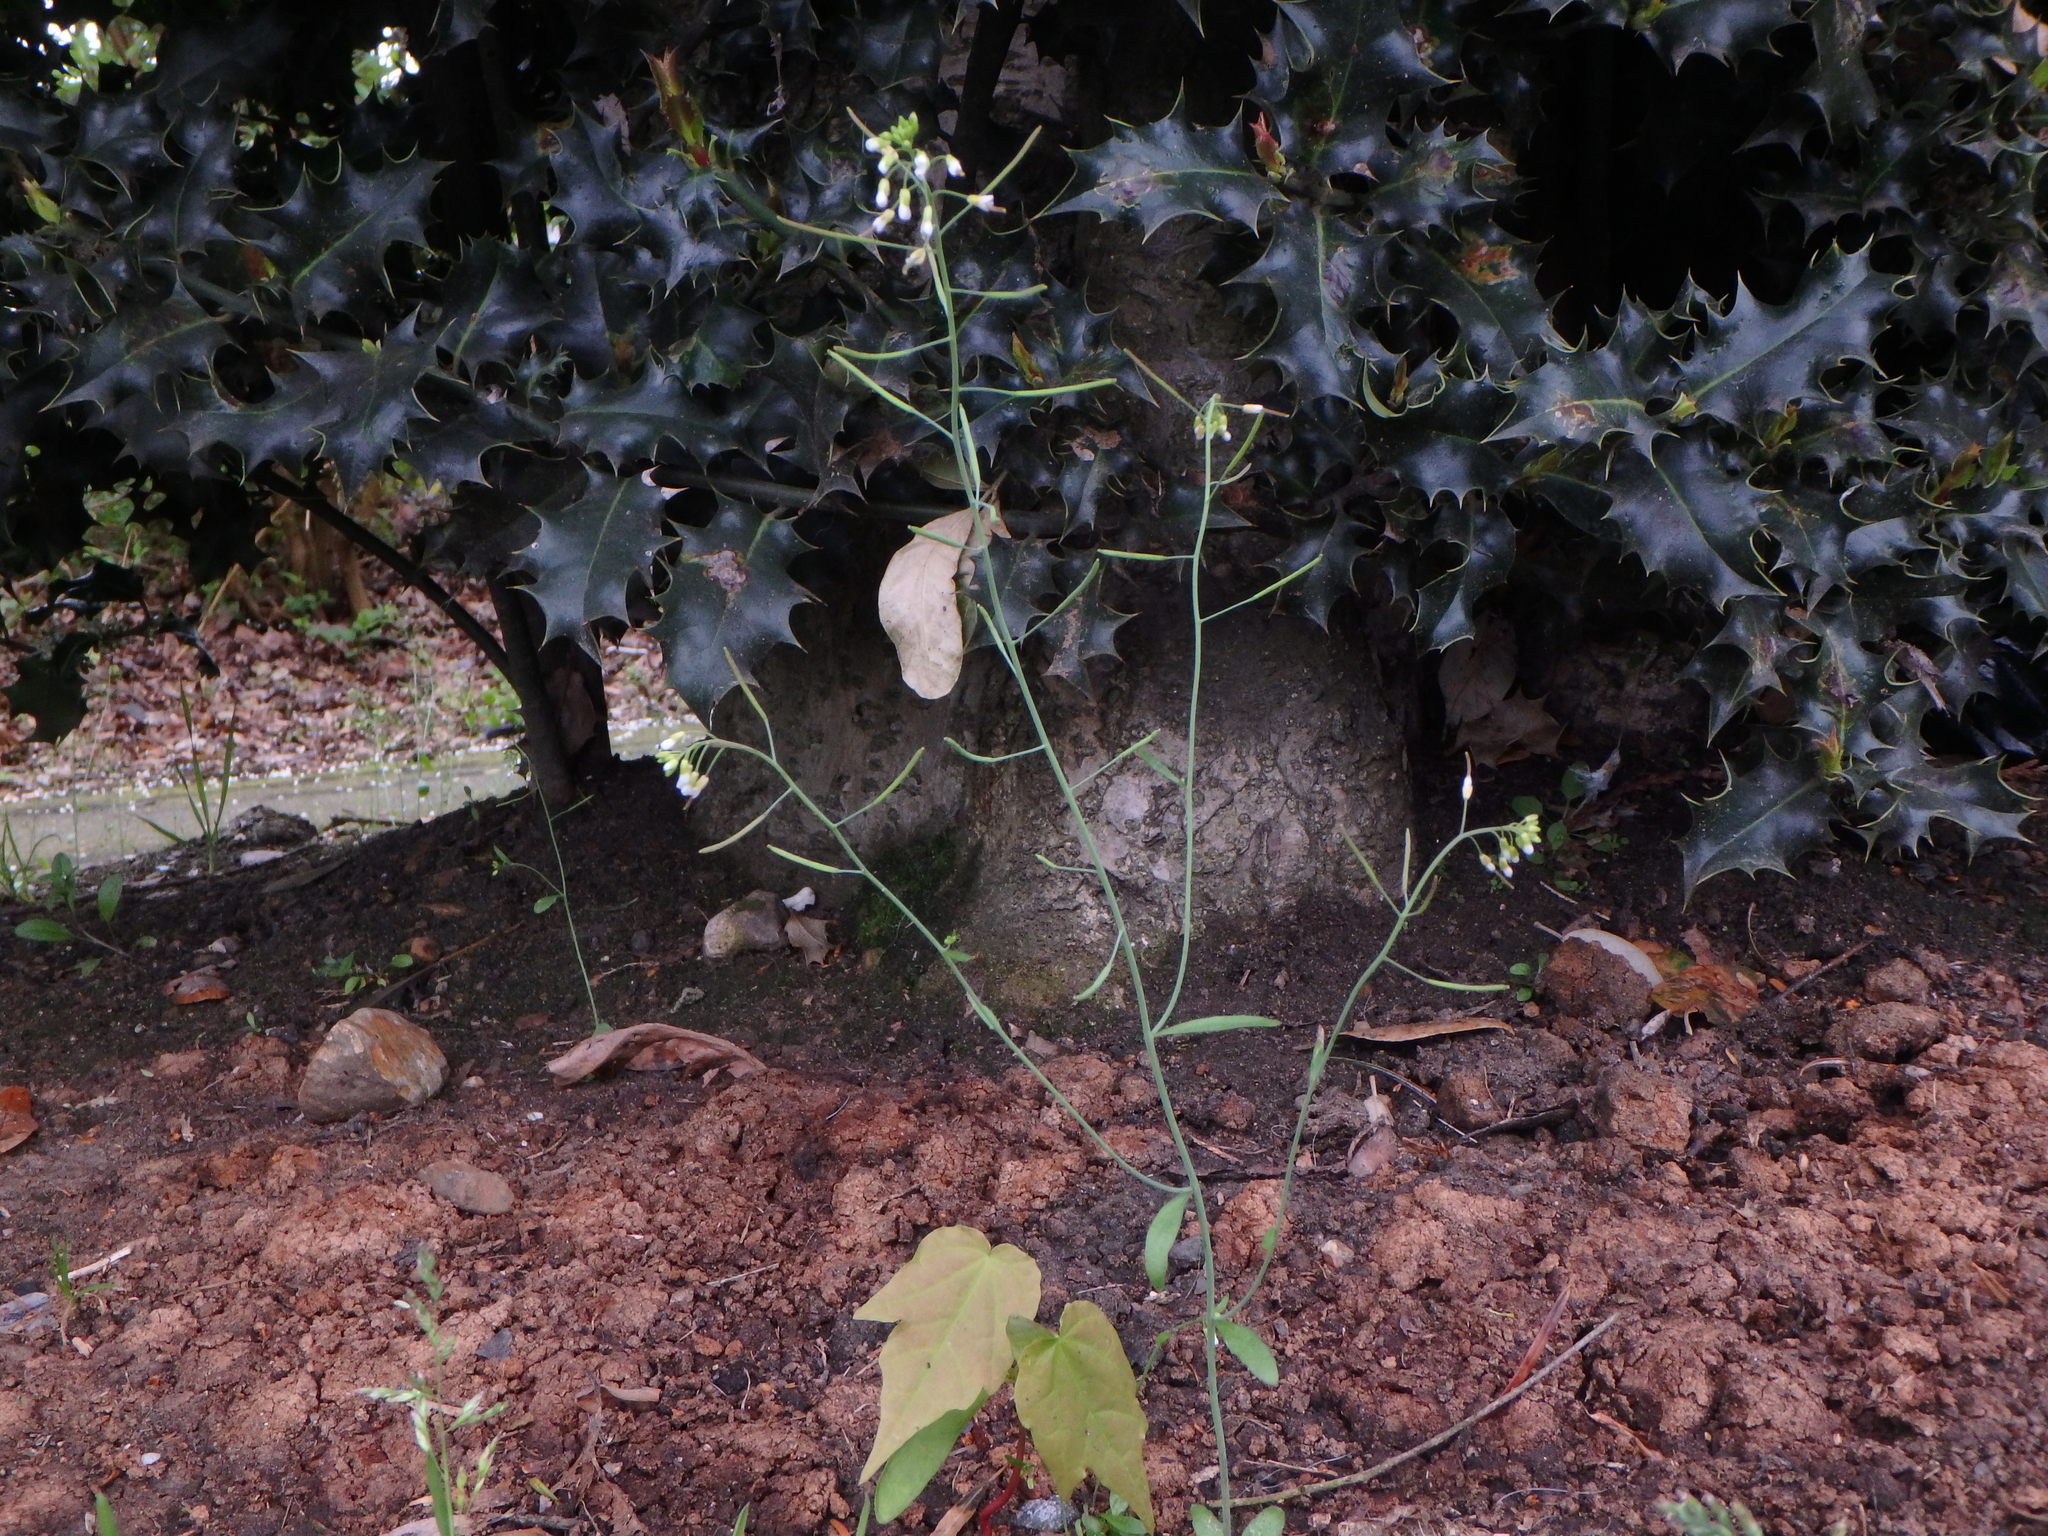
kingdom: Plantae
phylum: Tracheophyta
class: Magnoliopsida
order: Brassicales
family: Brassicaceae
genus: Arabidopsis
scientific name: Arabidopsis thaliana
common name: Thale cress
